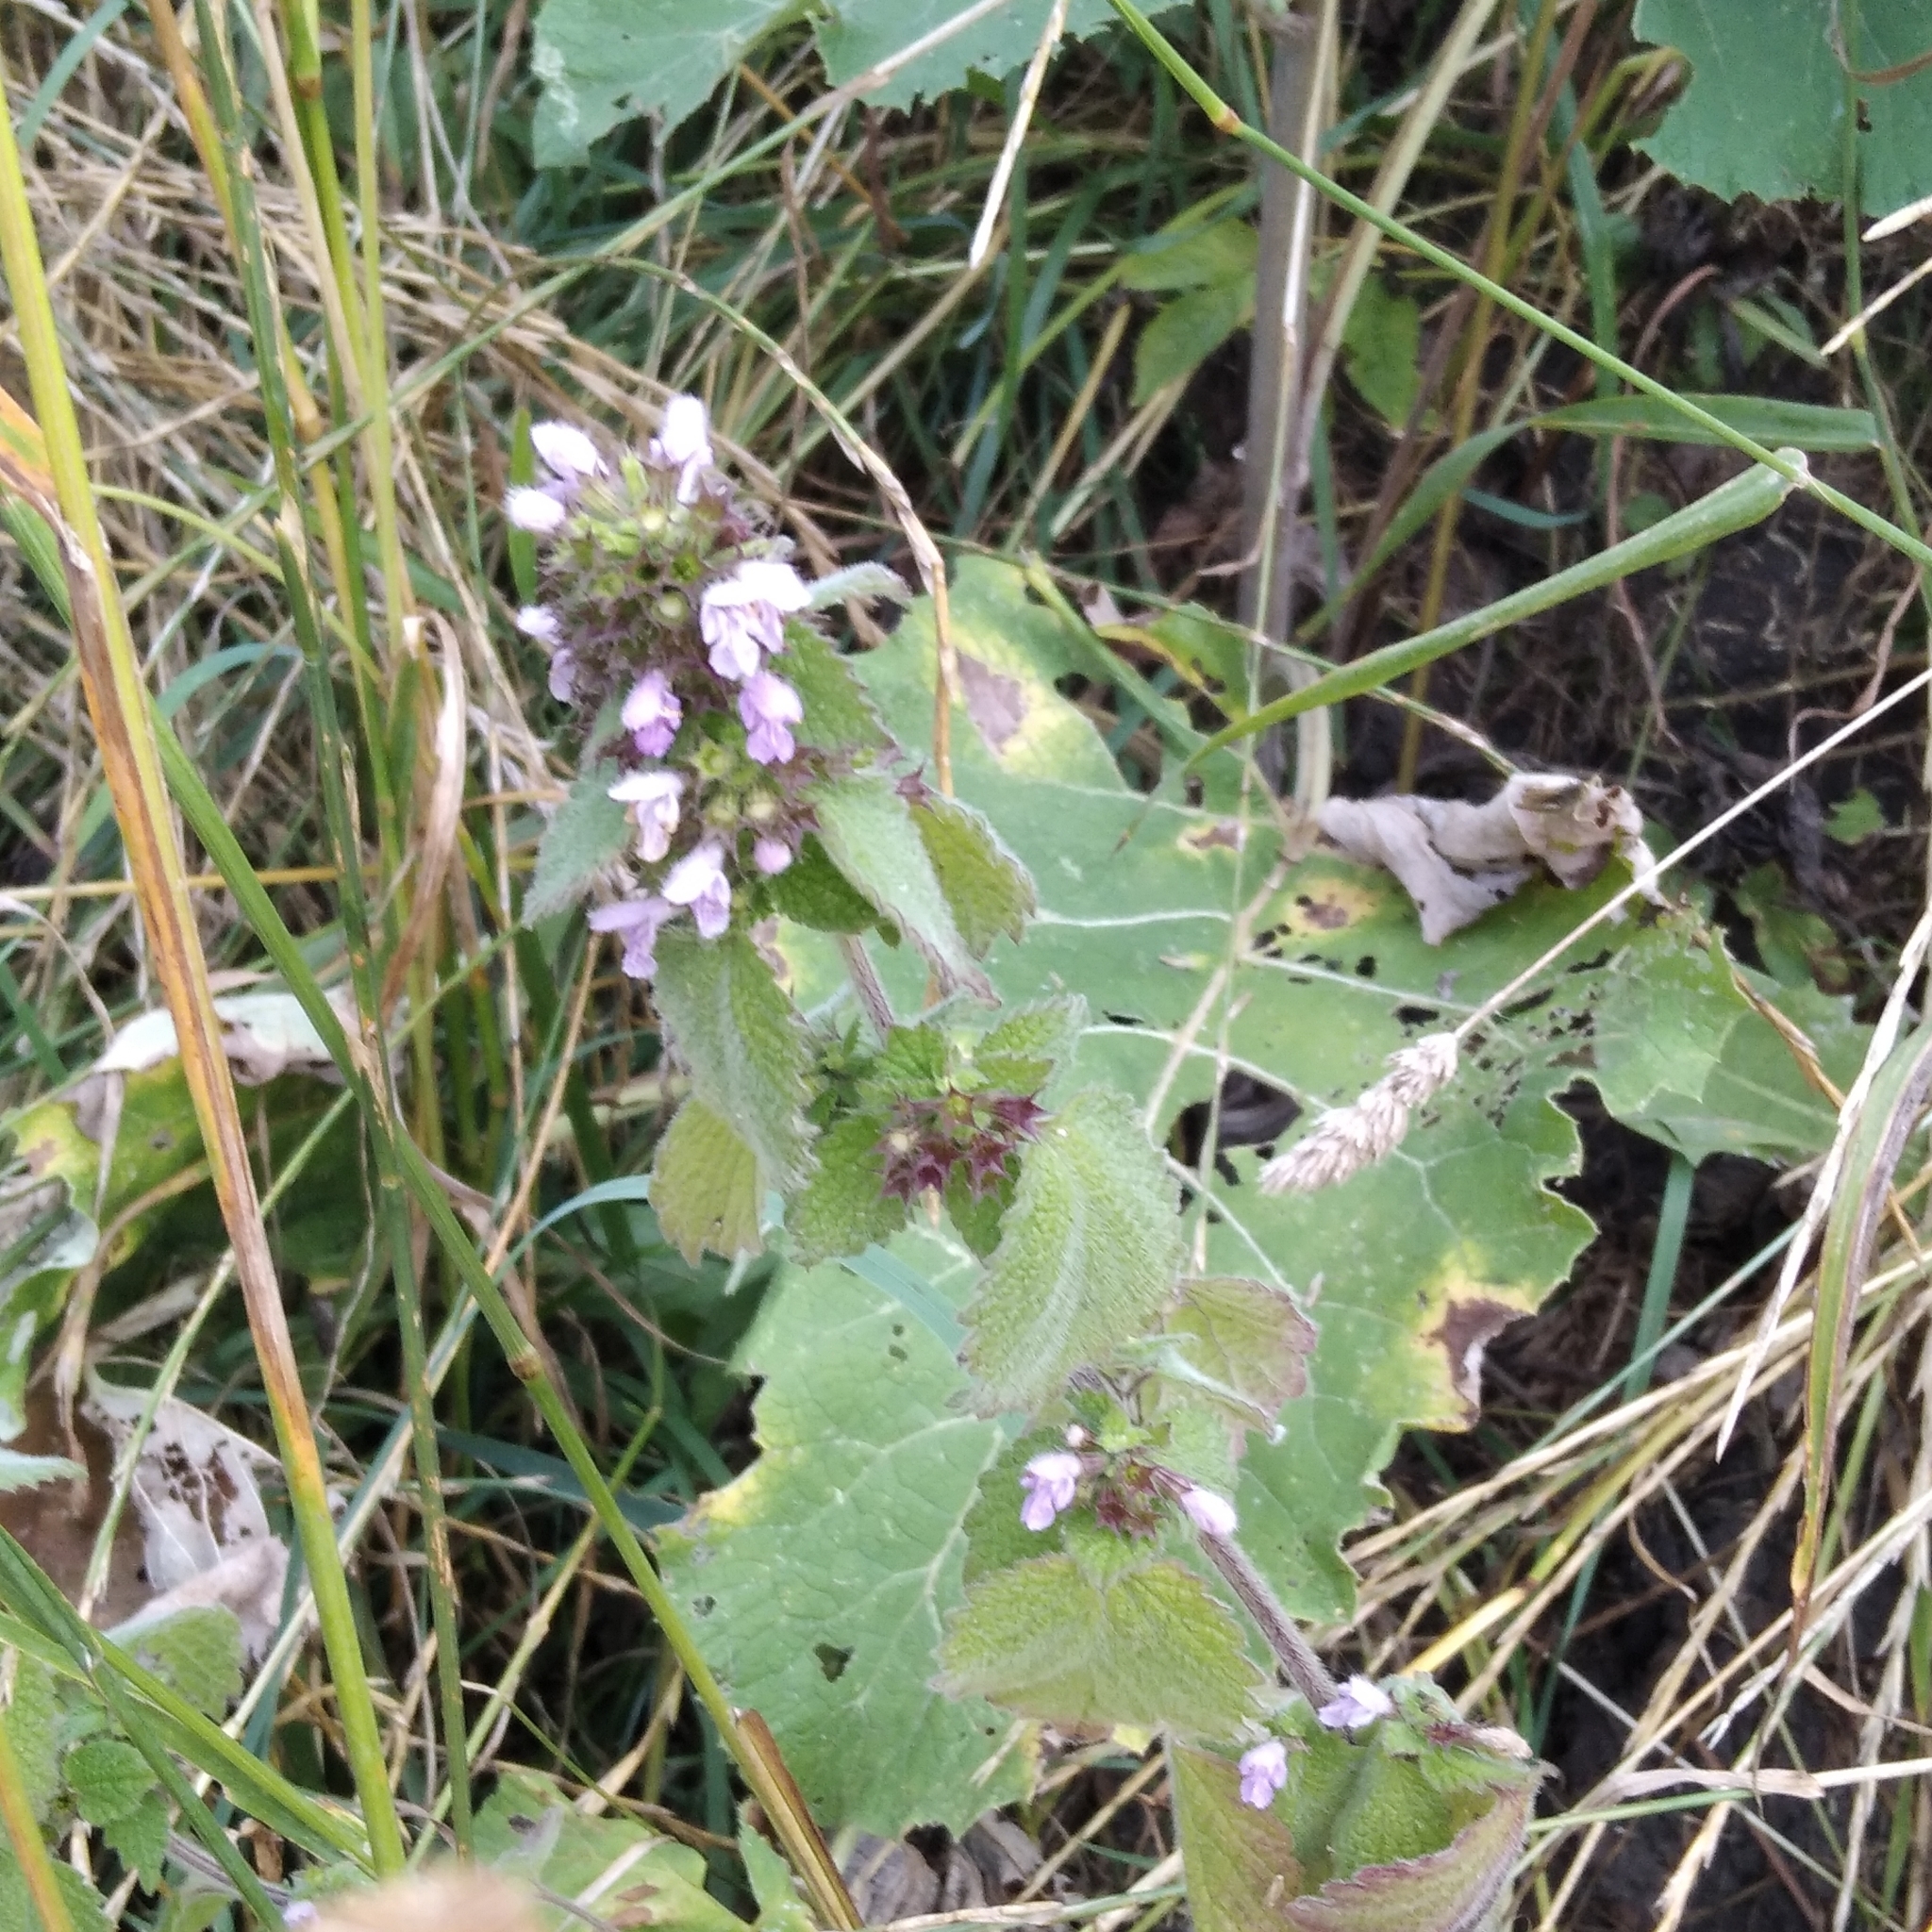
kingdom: Plantae
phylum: Tracheophyta
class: Magnoliopsida
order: Lamiales
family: Lamiaceae
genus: Ballota
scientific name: Ballota nigra
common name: Black horehound
